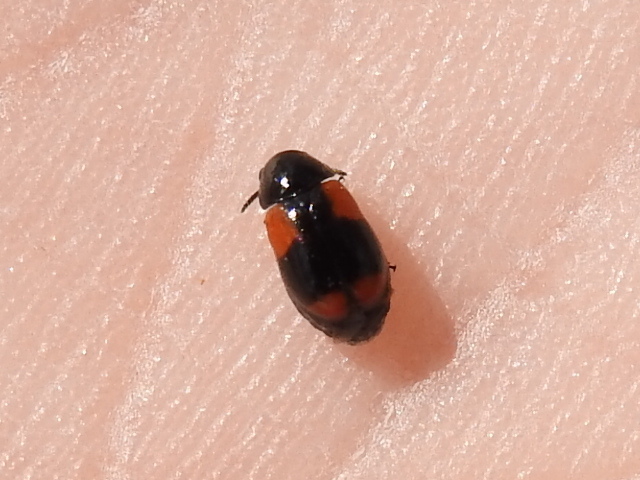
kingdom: Animalia
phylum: Arthropoda
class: Insecta
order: Coleoptera
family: Chrysomelidae
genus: Babia
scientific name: Babia tetraspilota
